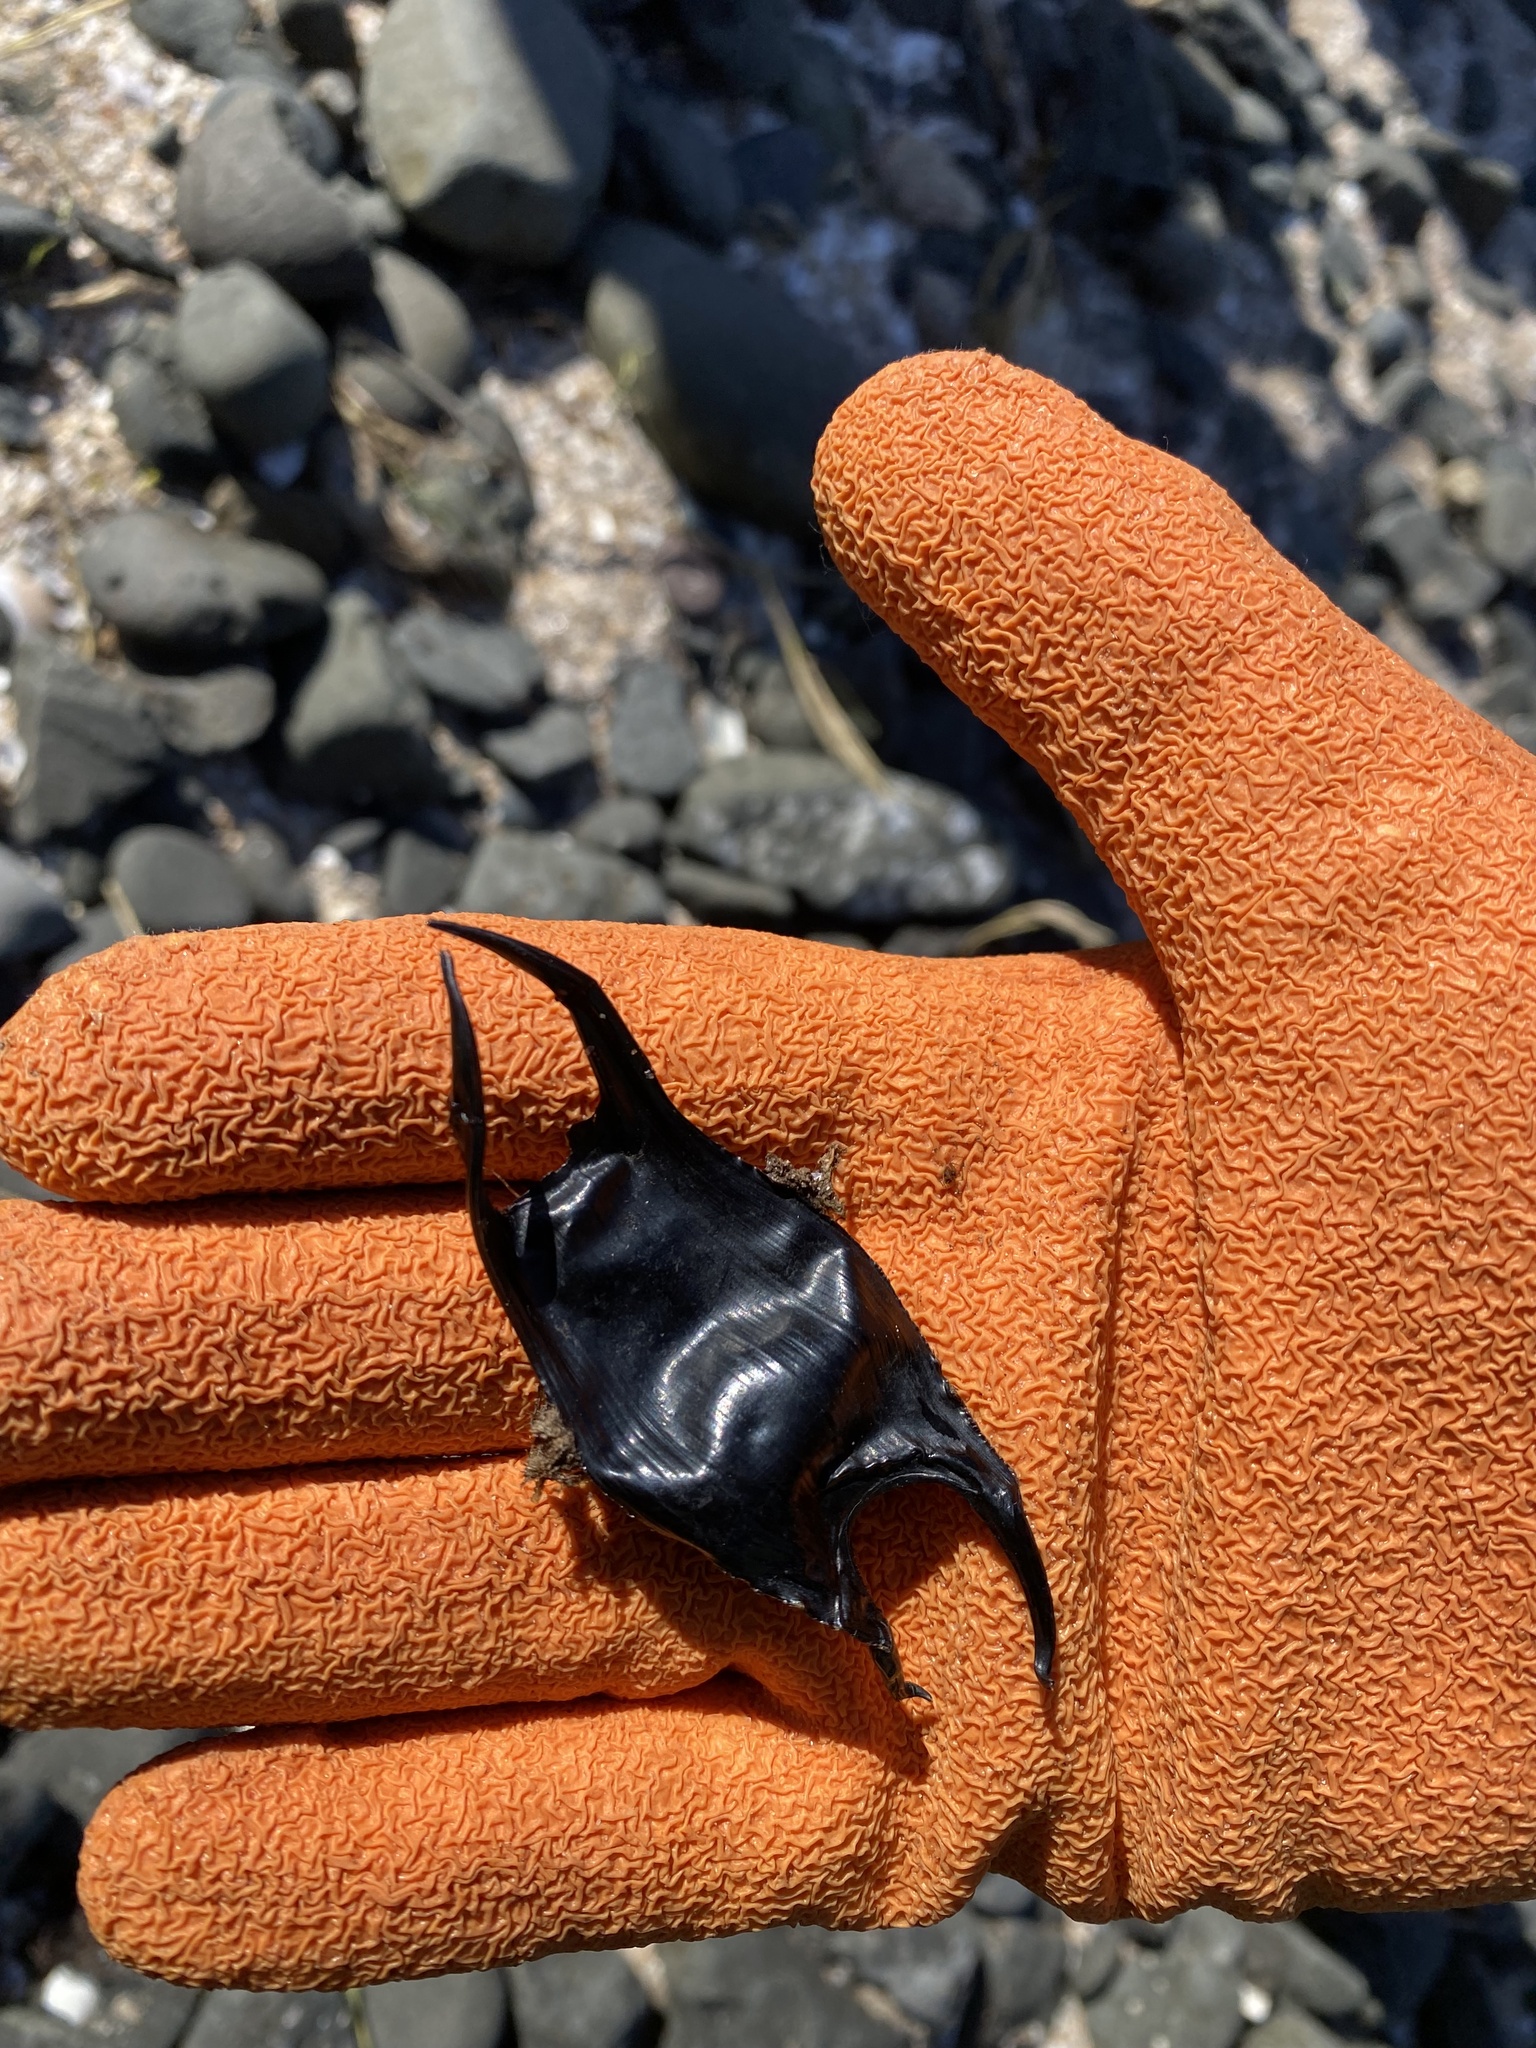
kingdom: Animalia
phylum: Chordata
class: Elasmobranchii
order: Rajiformes
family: Rajidae
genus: Raja
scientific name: Raja montagui
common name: Spotted ray
